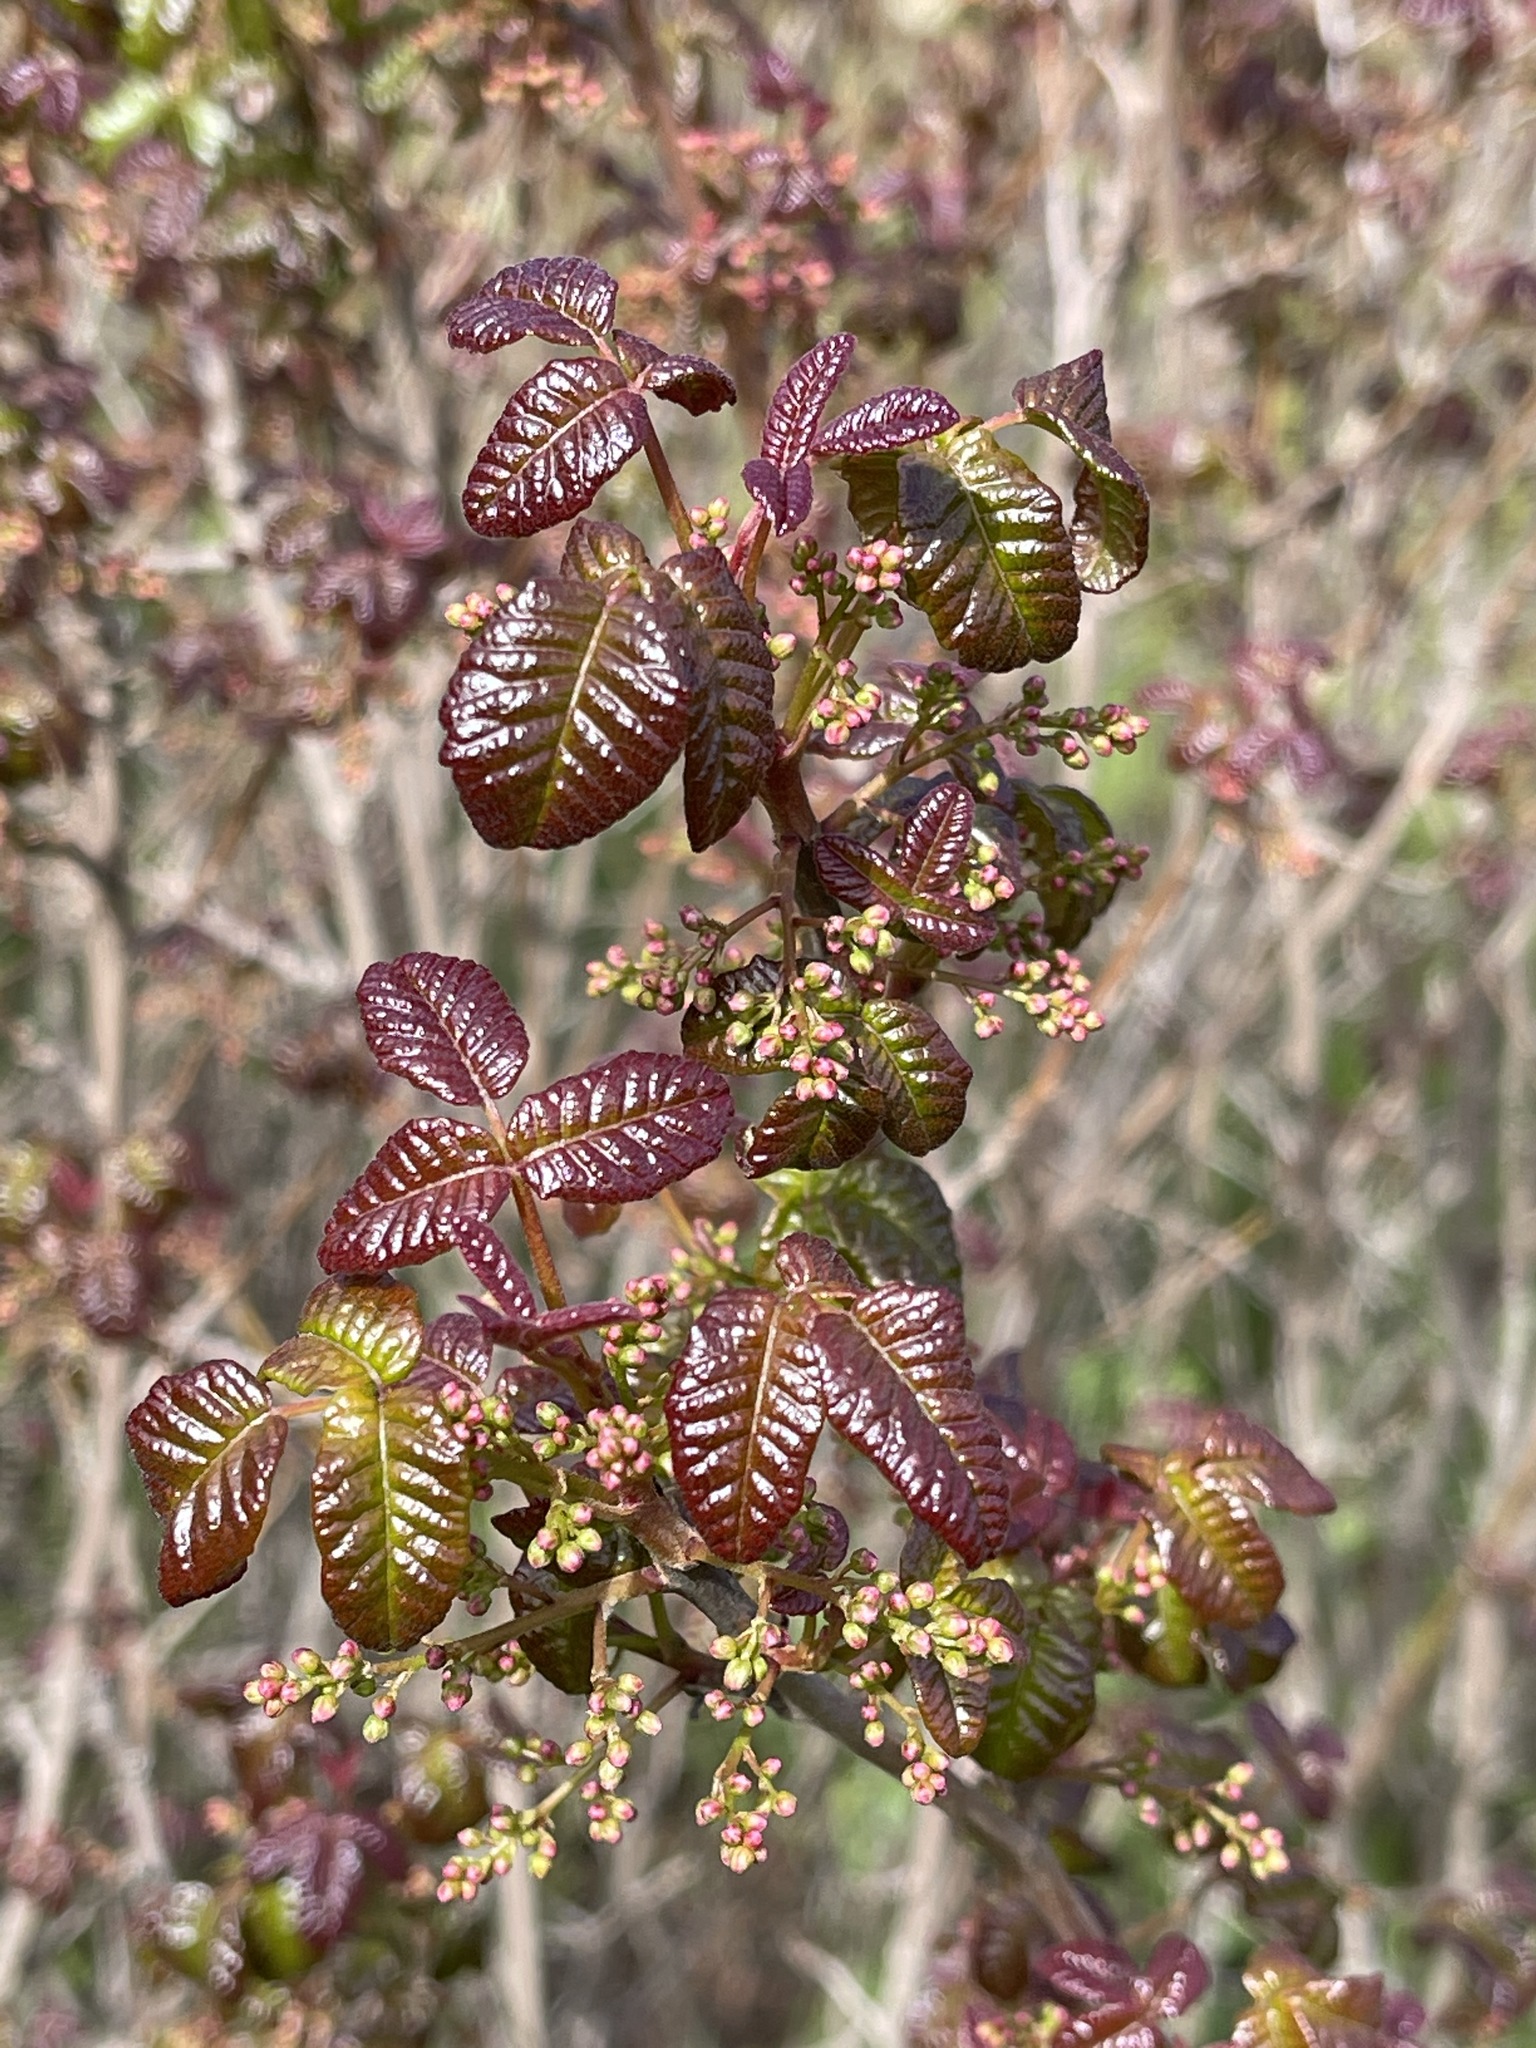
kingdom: Plantae
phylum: Tracheophyta
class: Magnoliopsida
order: Sapindales
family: Anacardiaceae
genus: Toxicodendron
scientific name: Toxicodendron diversilobum
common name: Pacific poison-oak
